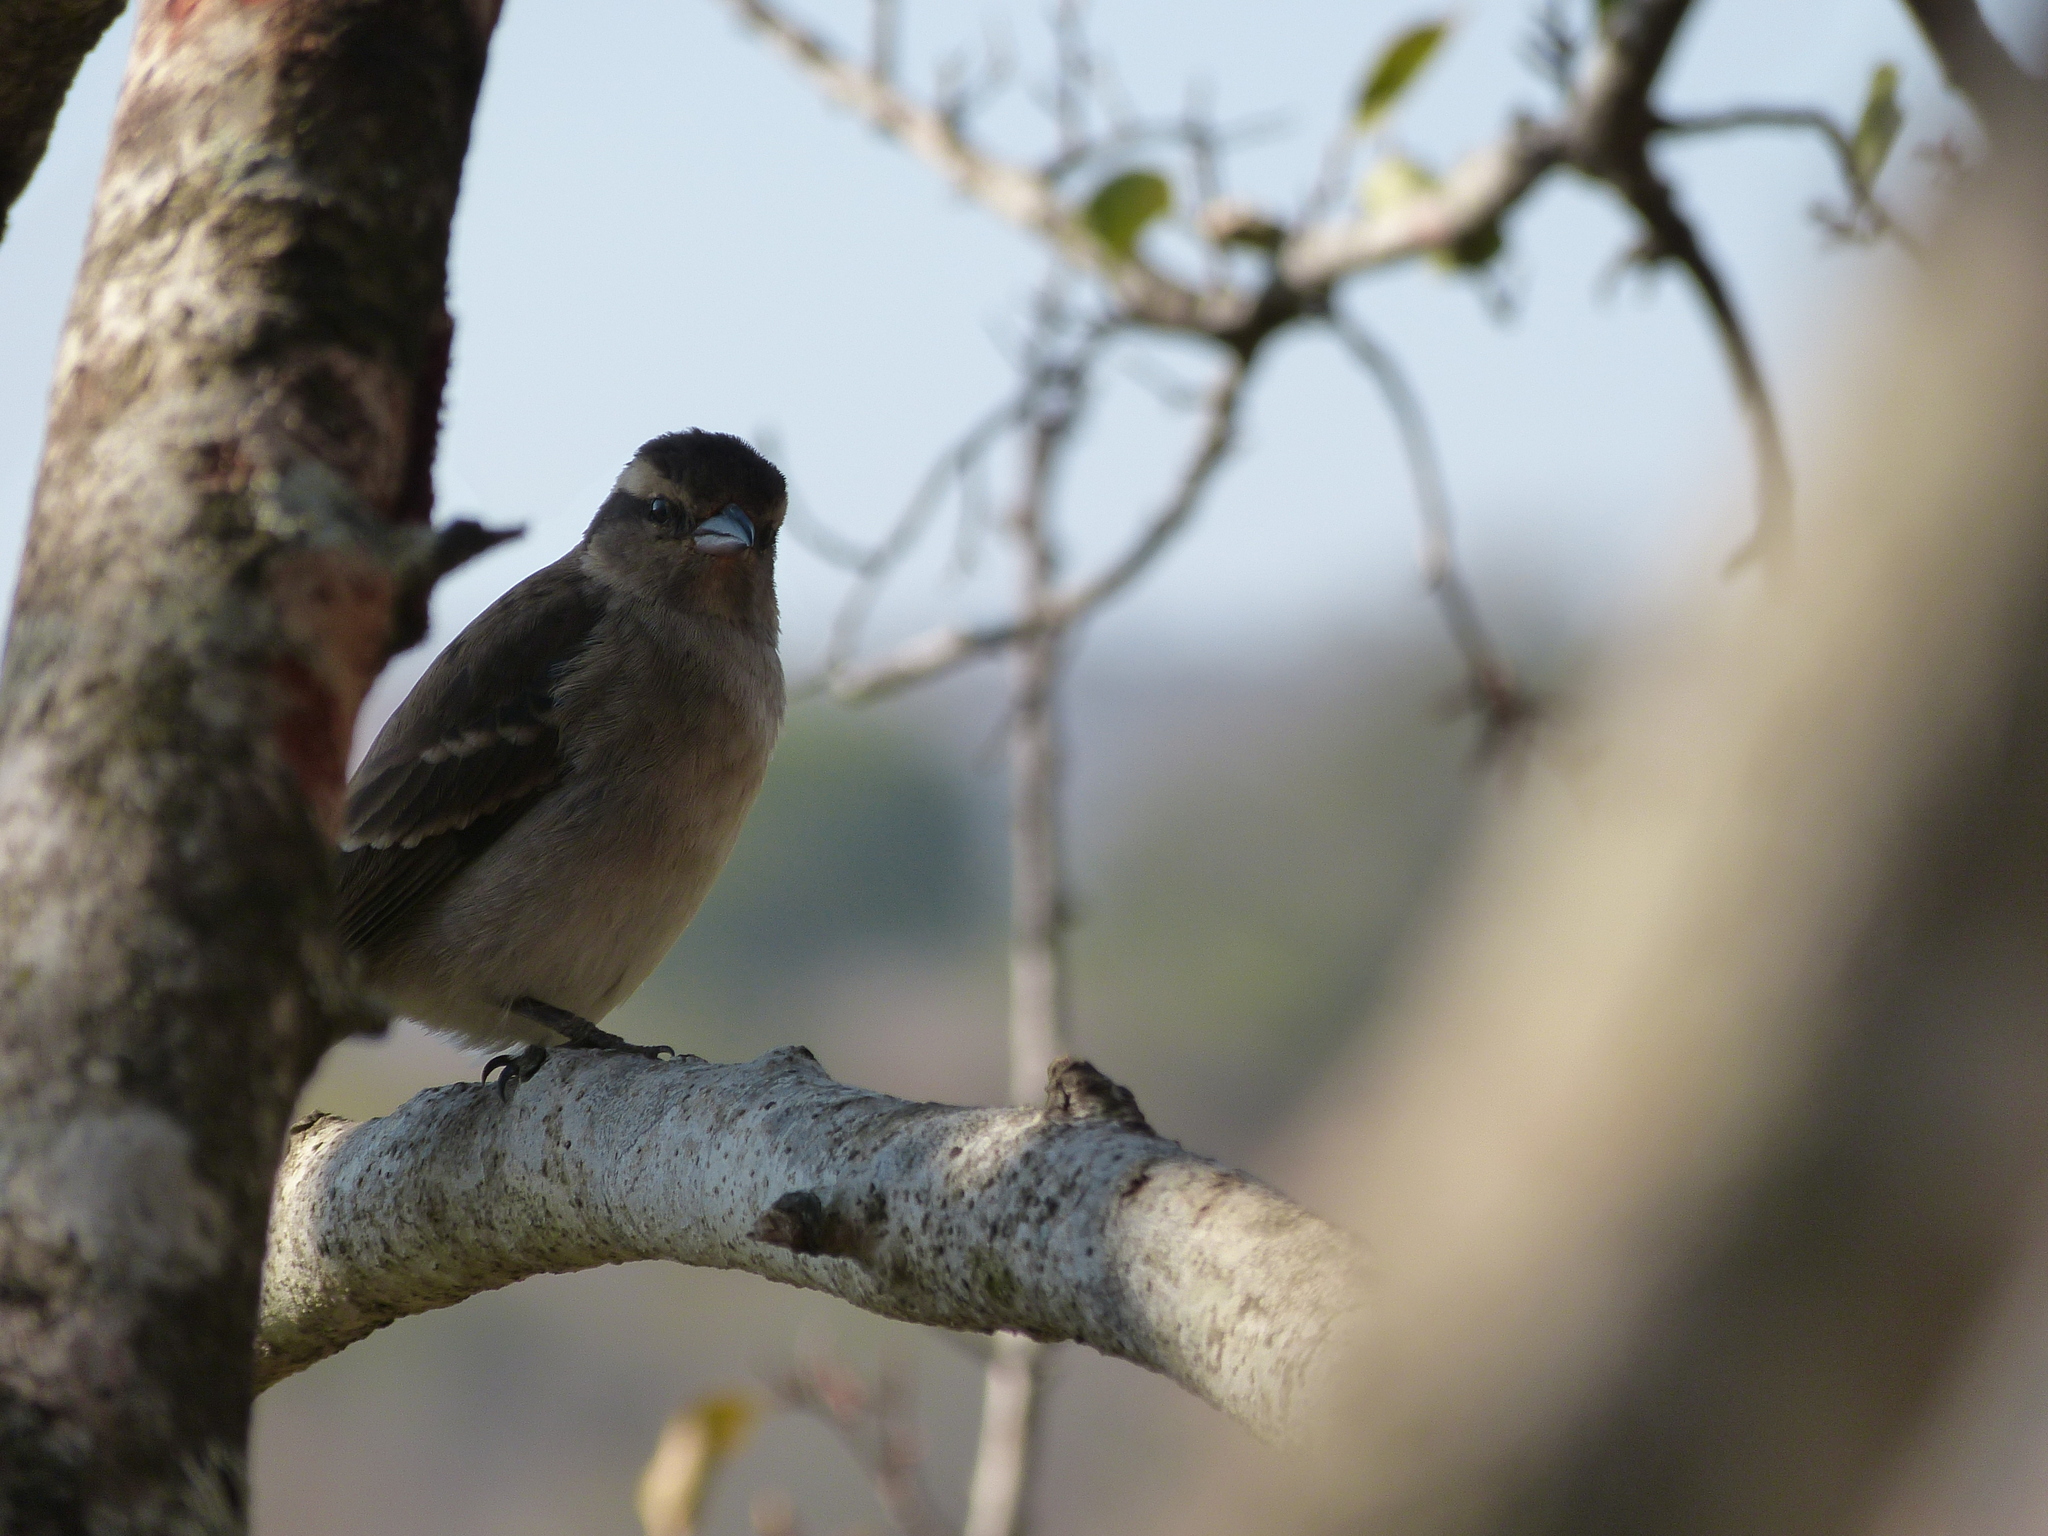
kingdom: Animalia
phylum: Chordata
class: Aves
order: Passeriformes
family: Passeridae
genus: Gymnoris
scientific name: Gymnoris superciliaris
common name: Yellow-throated petronia
